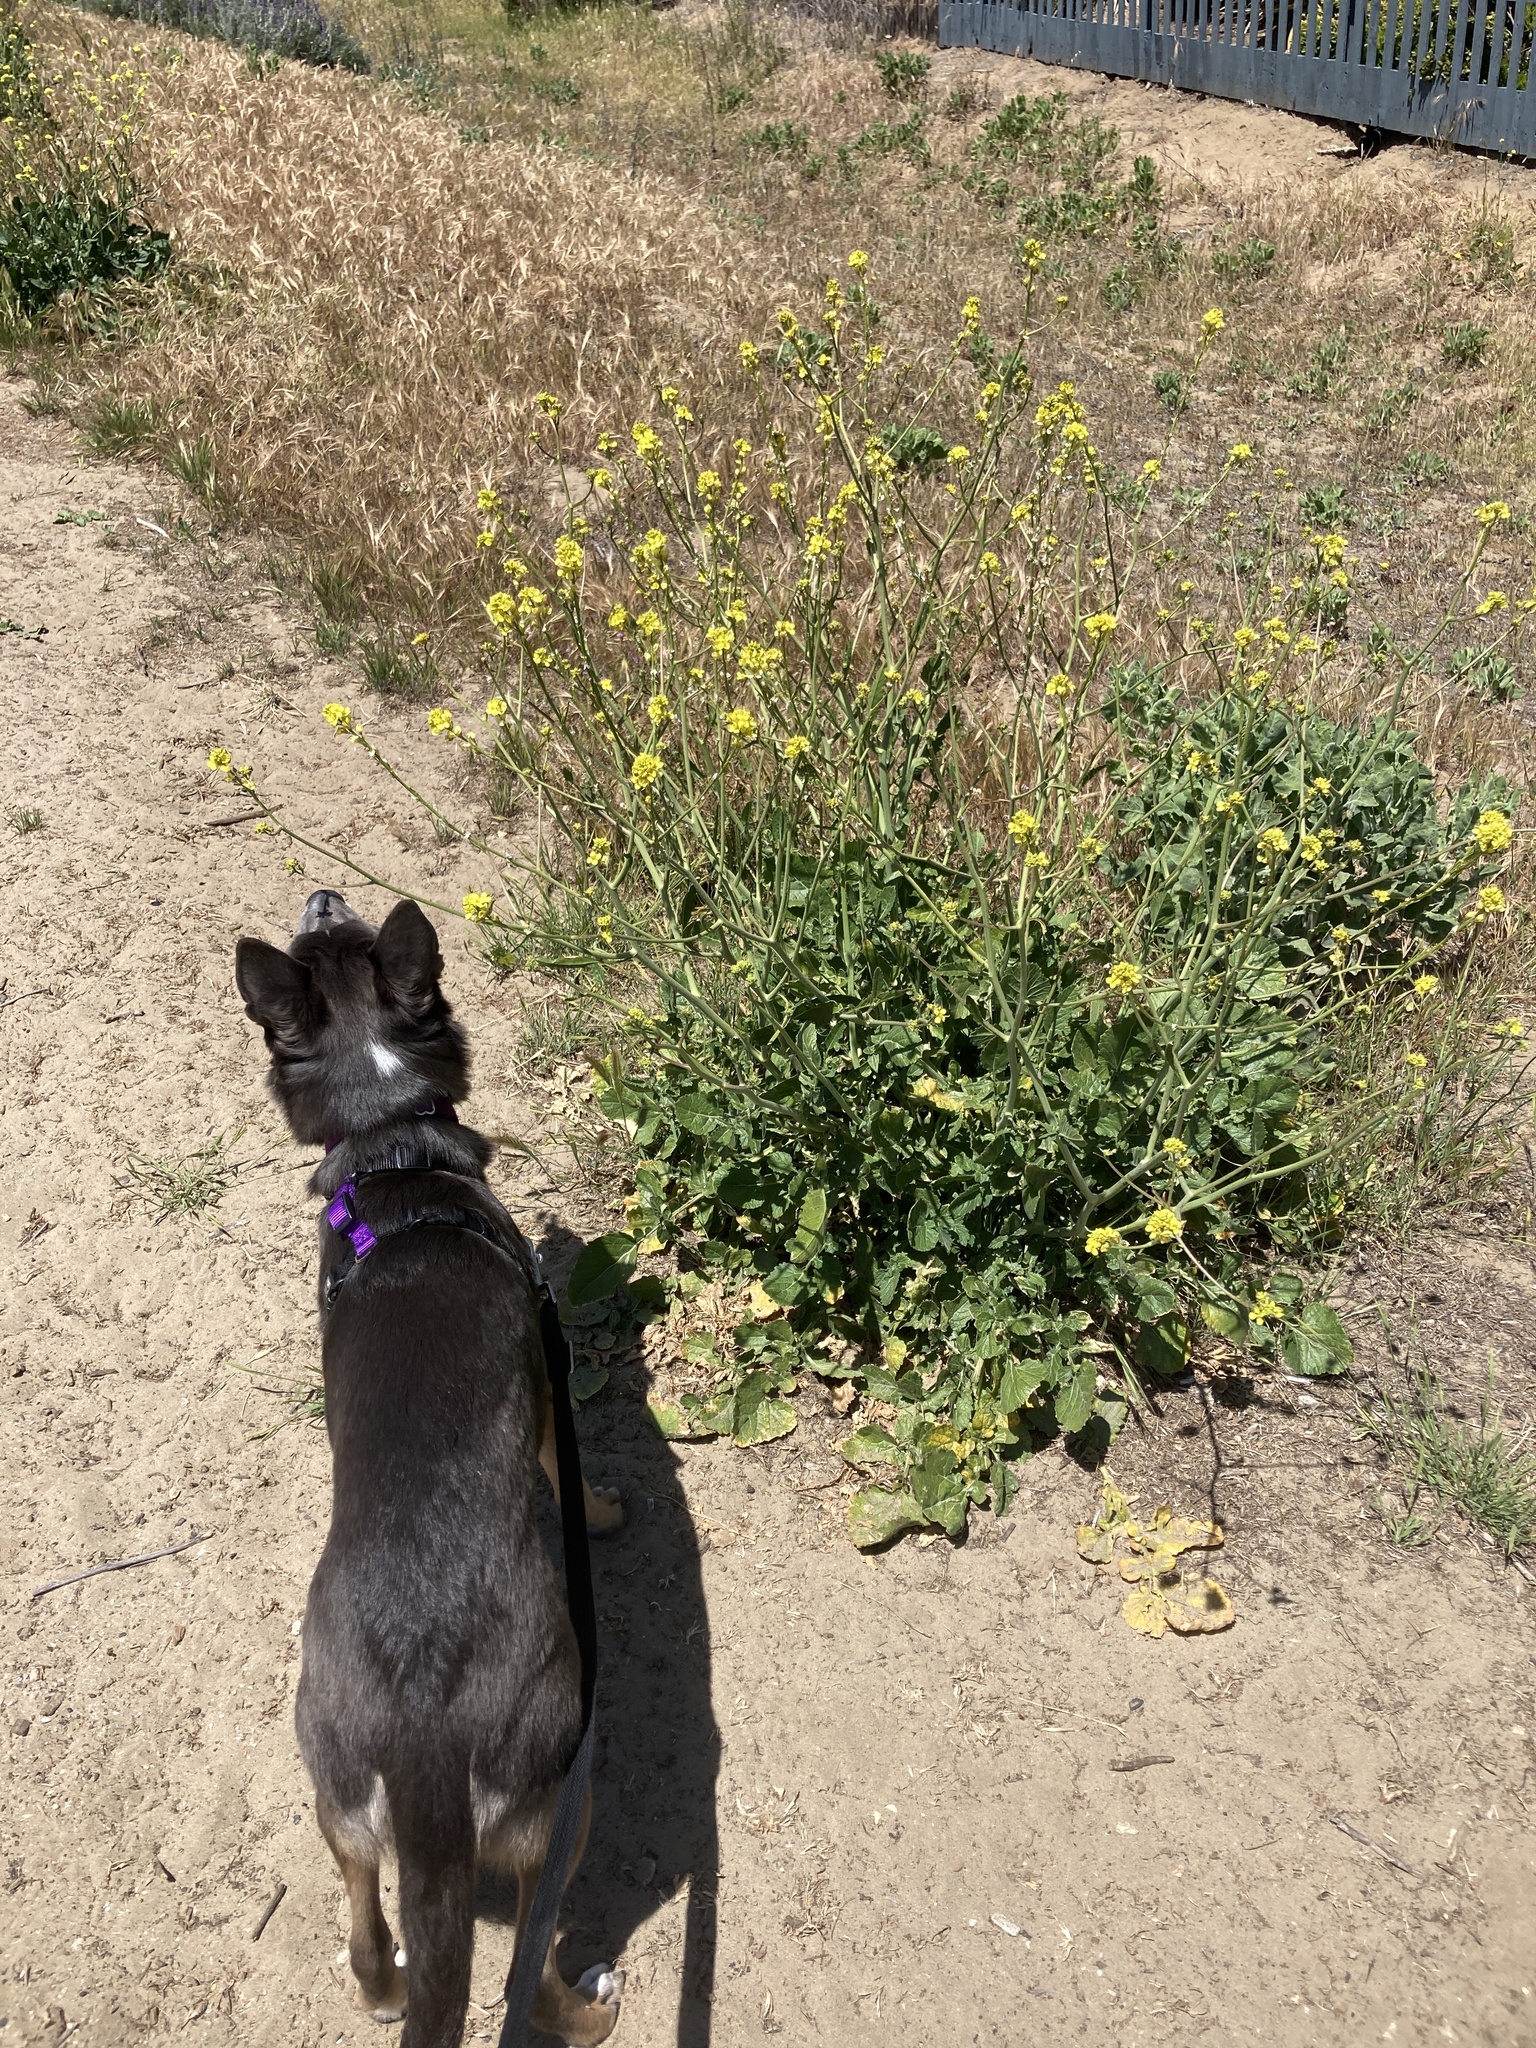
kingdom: Plantae
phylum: Tracheophyta
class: Magnoliopsida
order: Brassicales
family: Brassicaceae
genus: Hirschfeldia
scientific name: Hirschfeldia incana
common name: Hoary mustard
